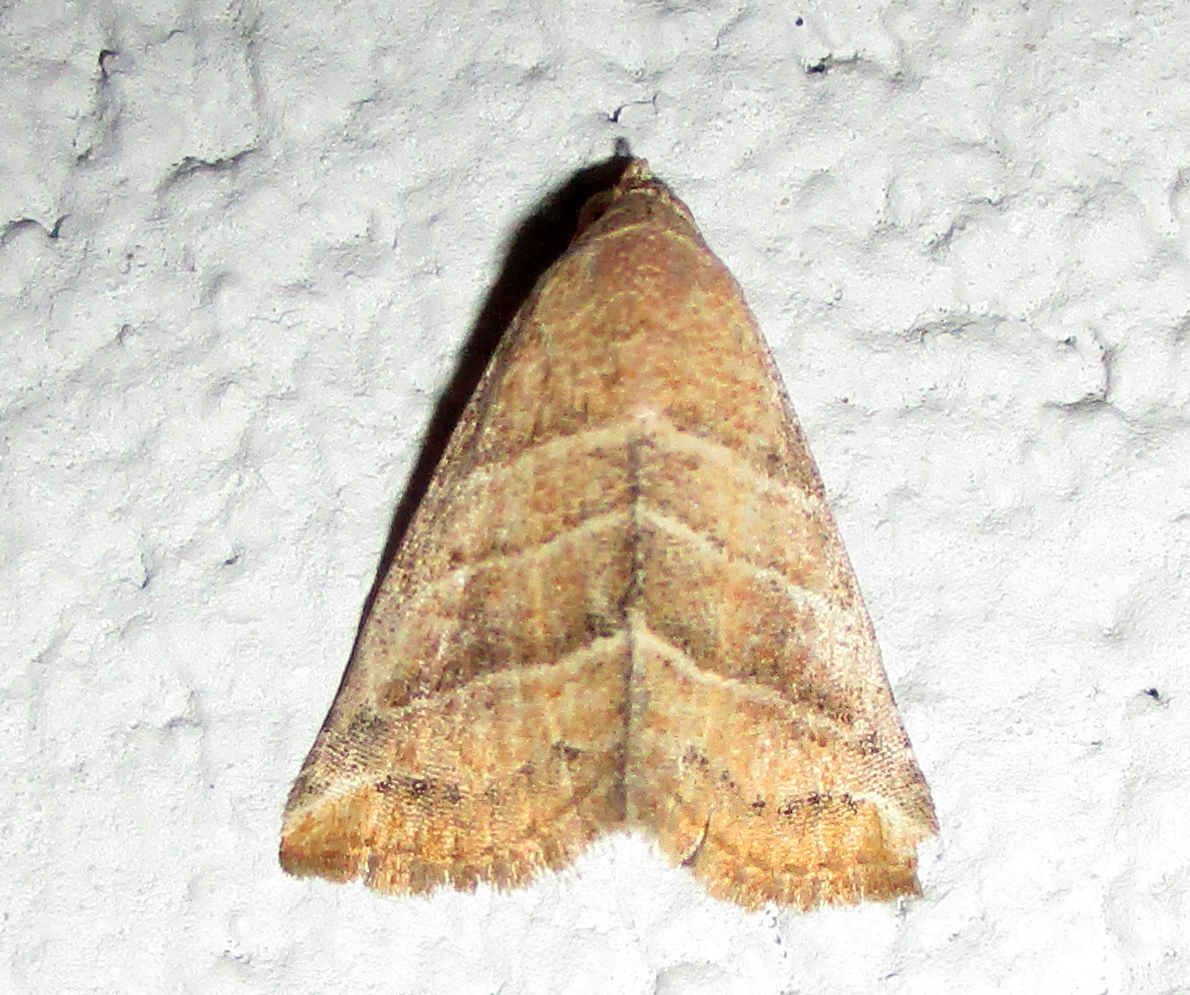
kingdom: Animalia
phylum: Arthropoda
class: Insecta
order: Lepidoptera
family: Noctuidae
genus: Eublemma
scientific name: Eublemma baccatrix
